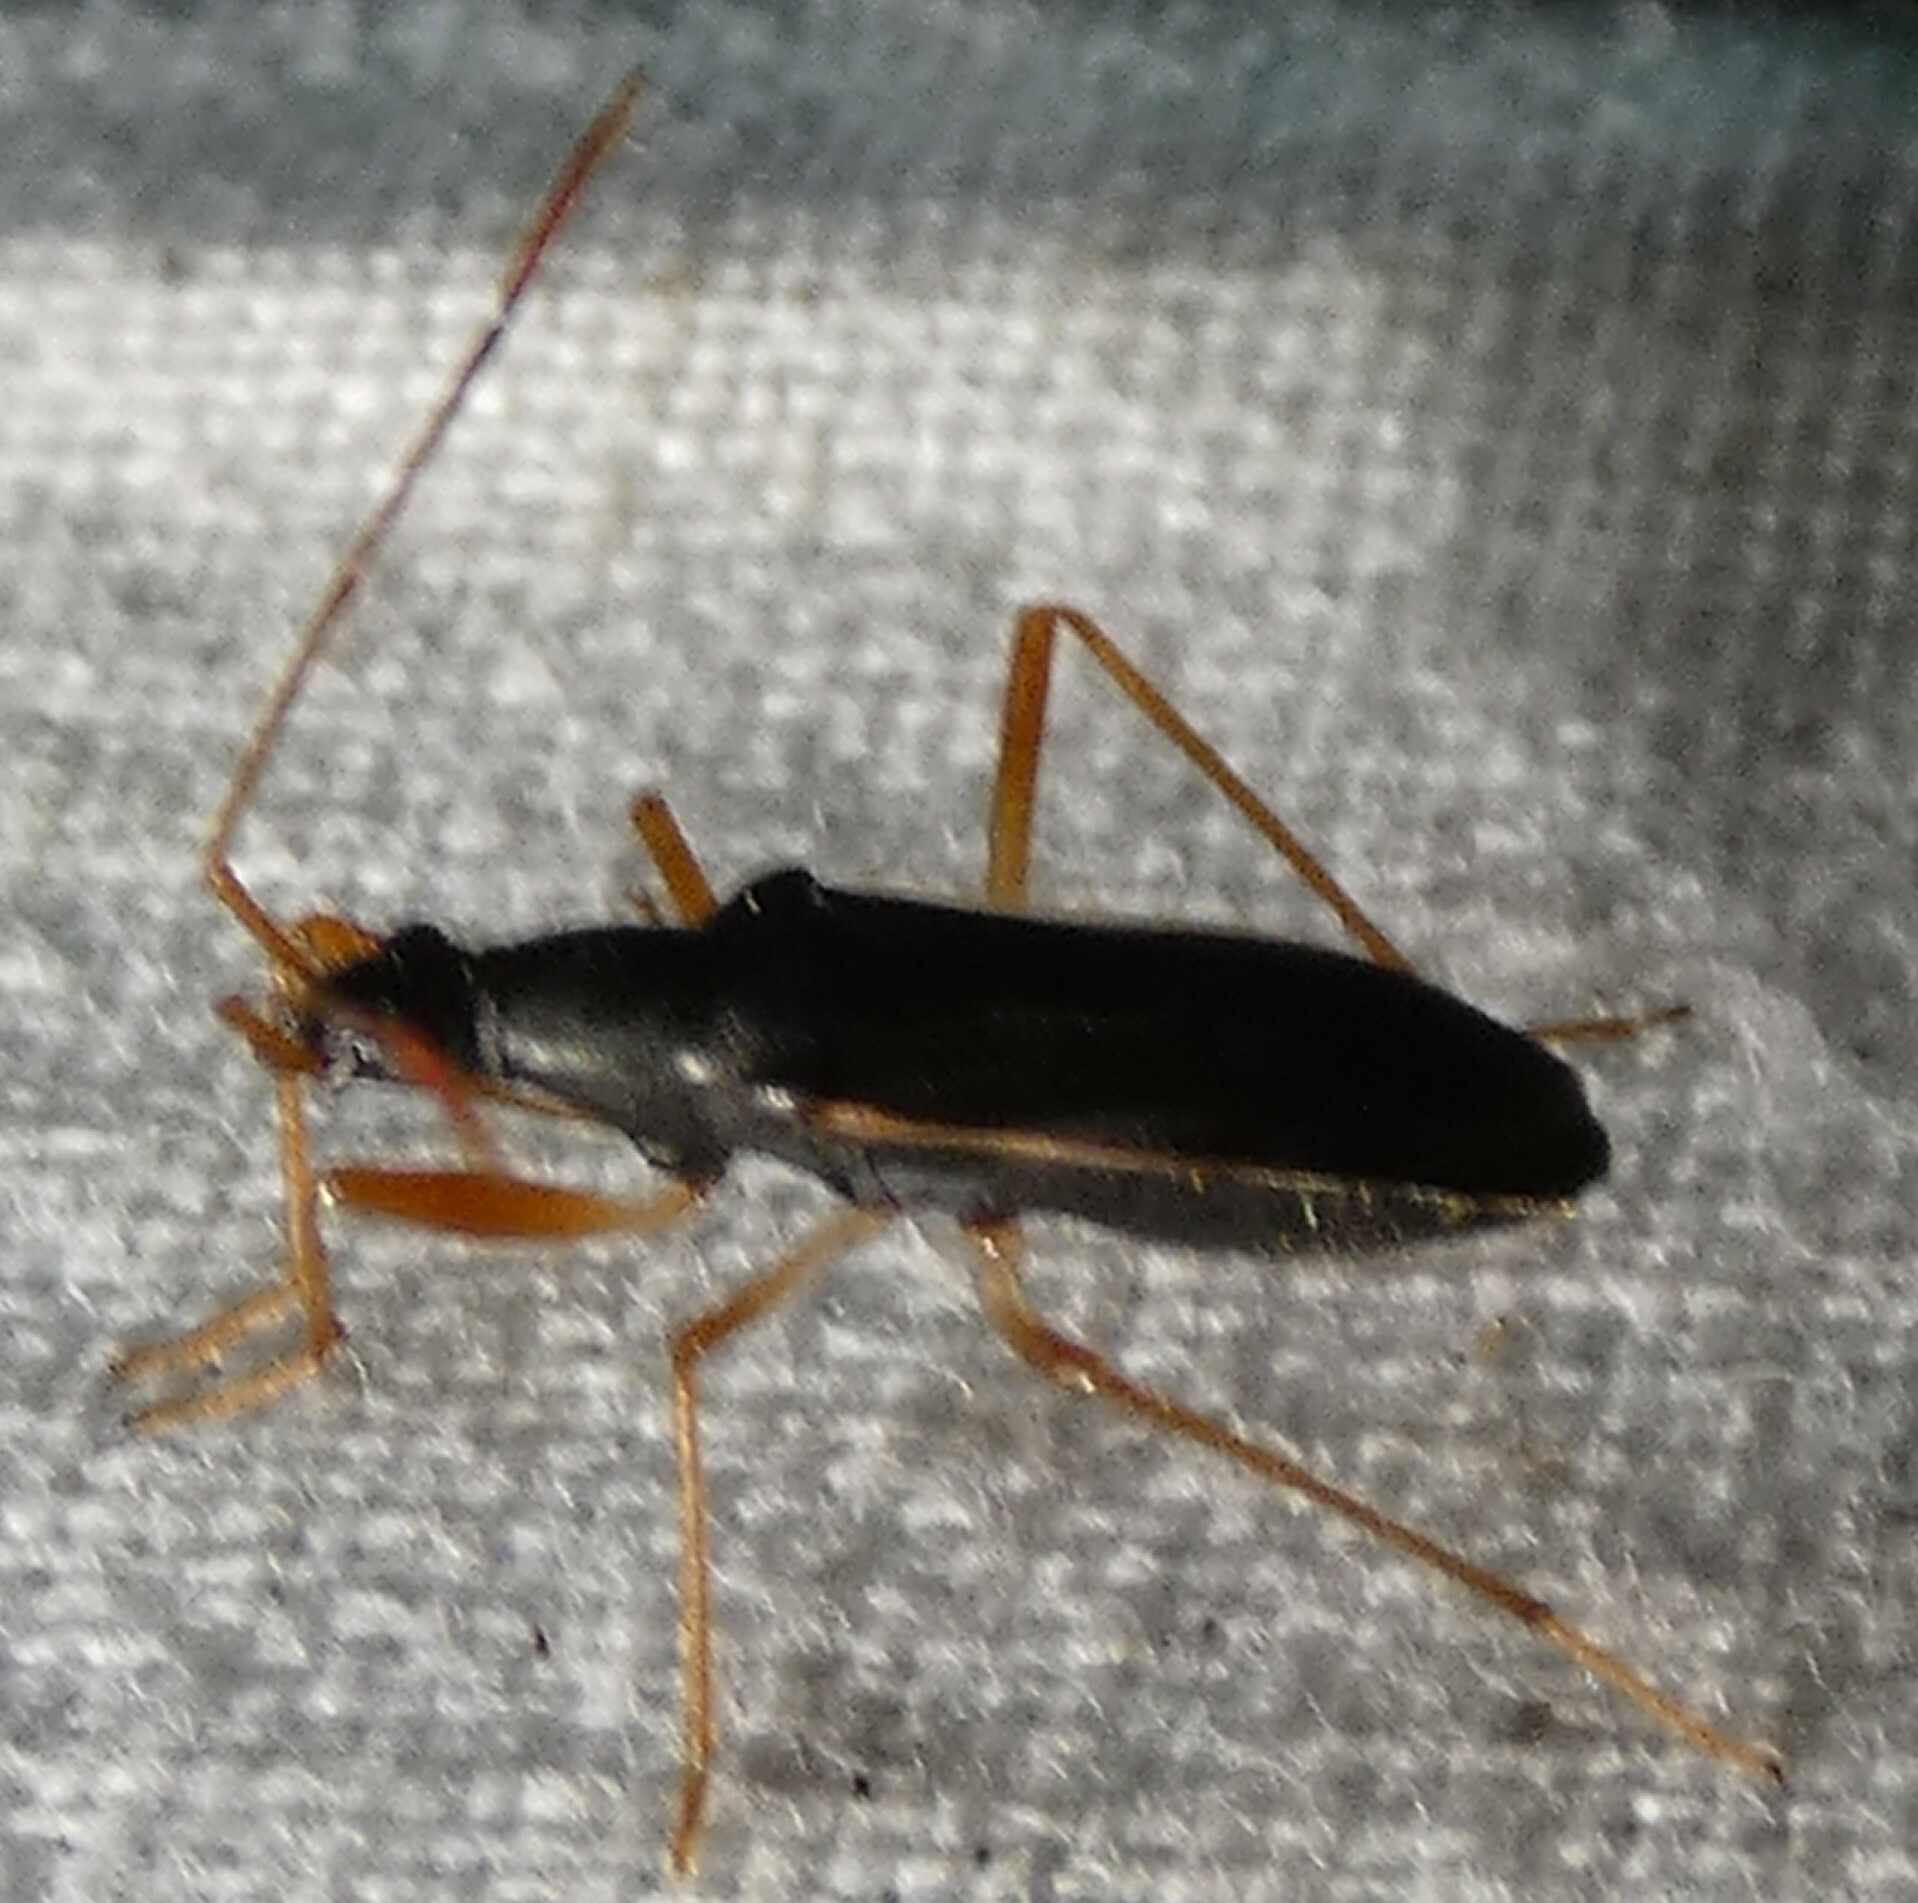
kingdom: Animalia
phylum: Arthropoda
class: Insecta
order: Hemiptera
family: Rhyparochromidae
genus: Cnemodus
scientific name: Cnemodus mavortius
